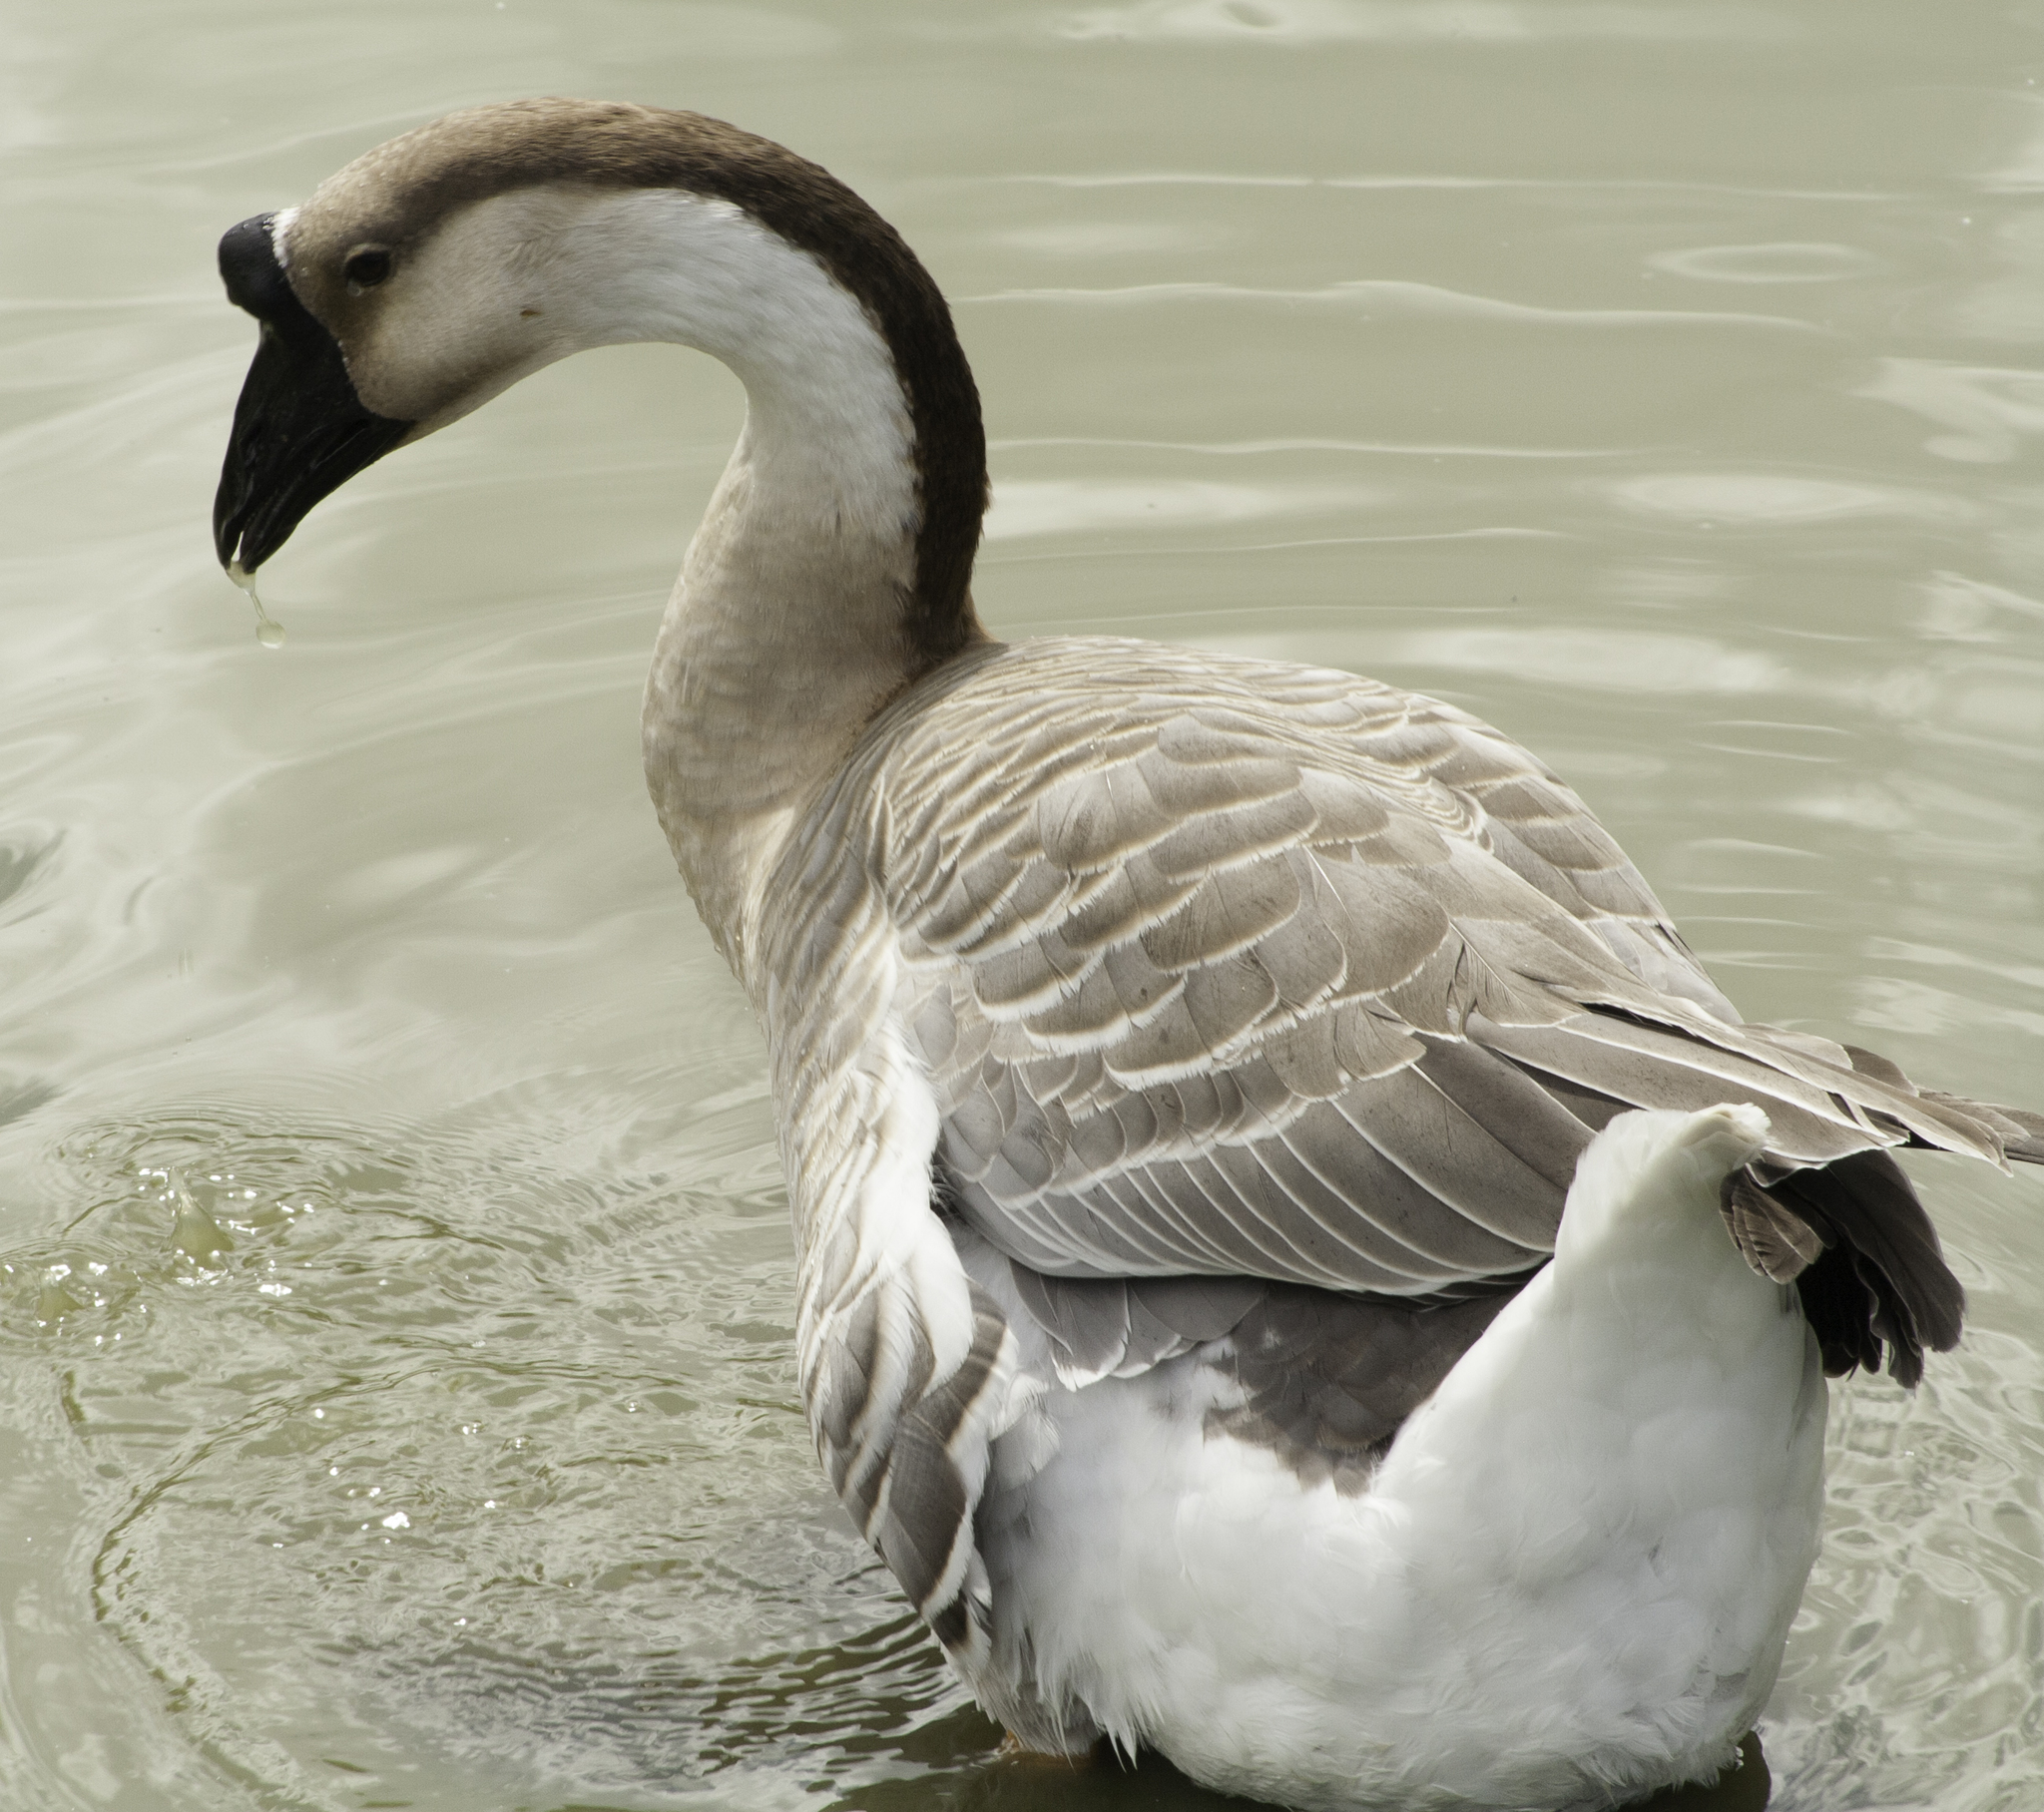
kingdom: Animalia
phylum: Chordata
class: Aves
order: Anseriformes
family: Anatidae
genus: Anser
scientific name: Anser cygnoides
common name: Swan goose
